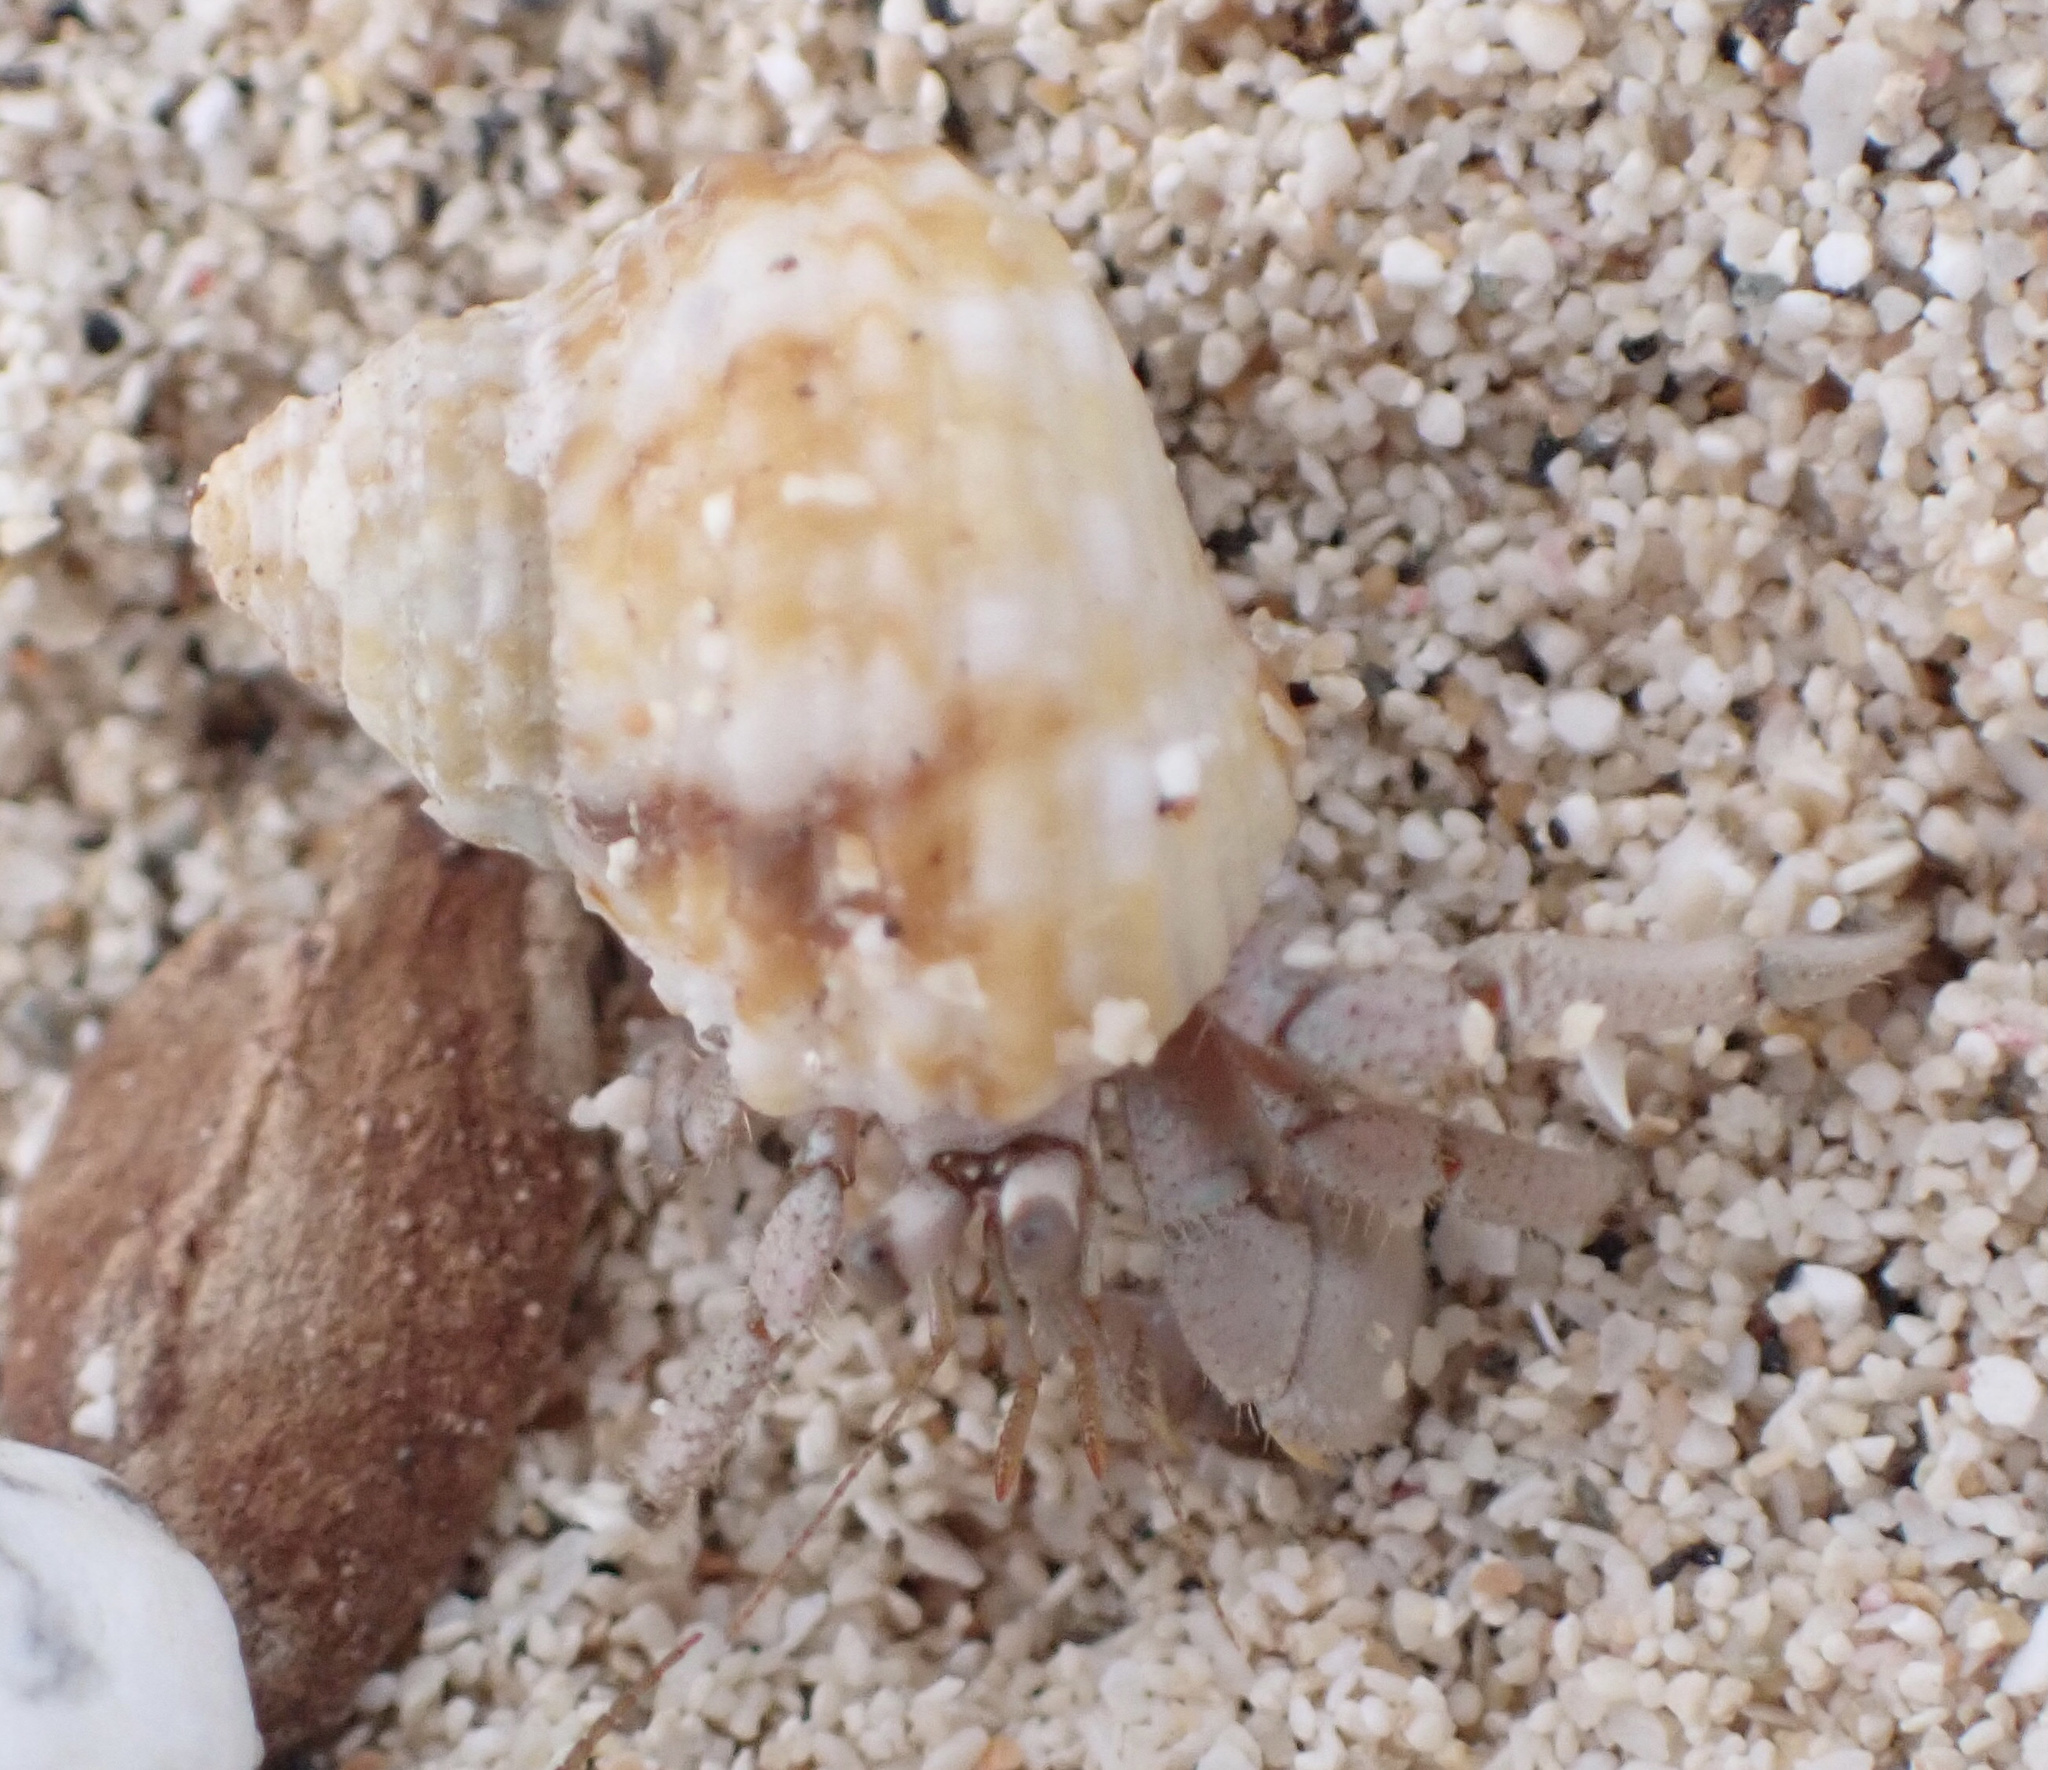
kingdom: Animalia
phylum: Arthropoda
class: Malacostraca
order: Decapoda
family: Coenobitidae
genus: Coenobita
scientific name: Coenobita scaevola
